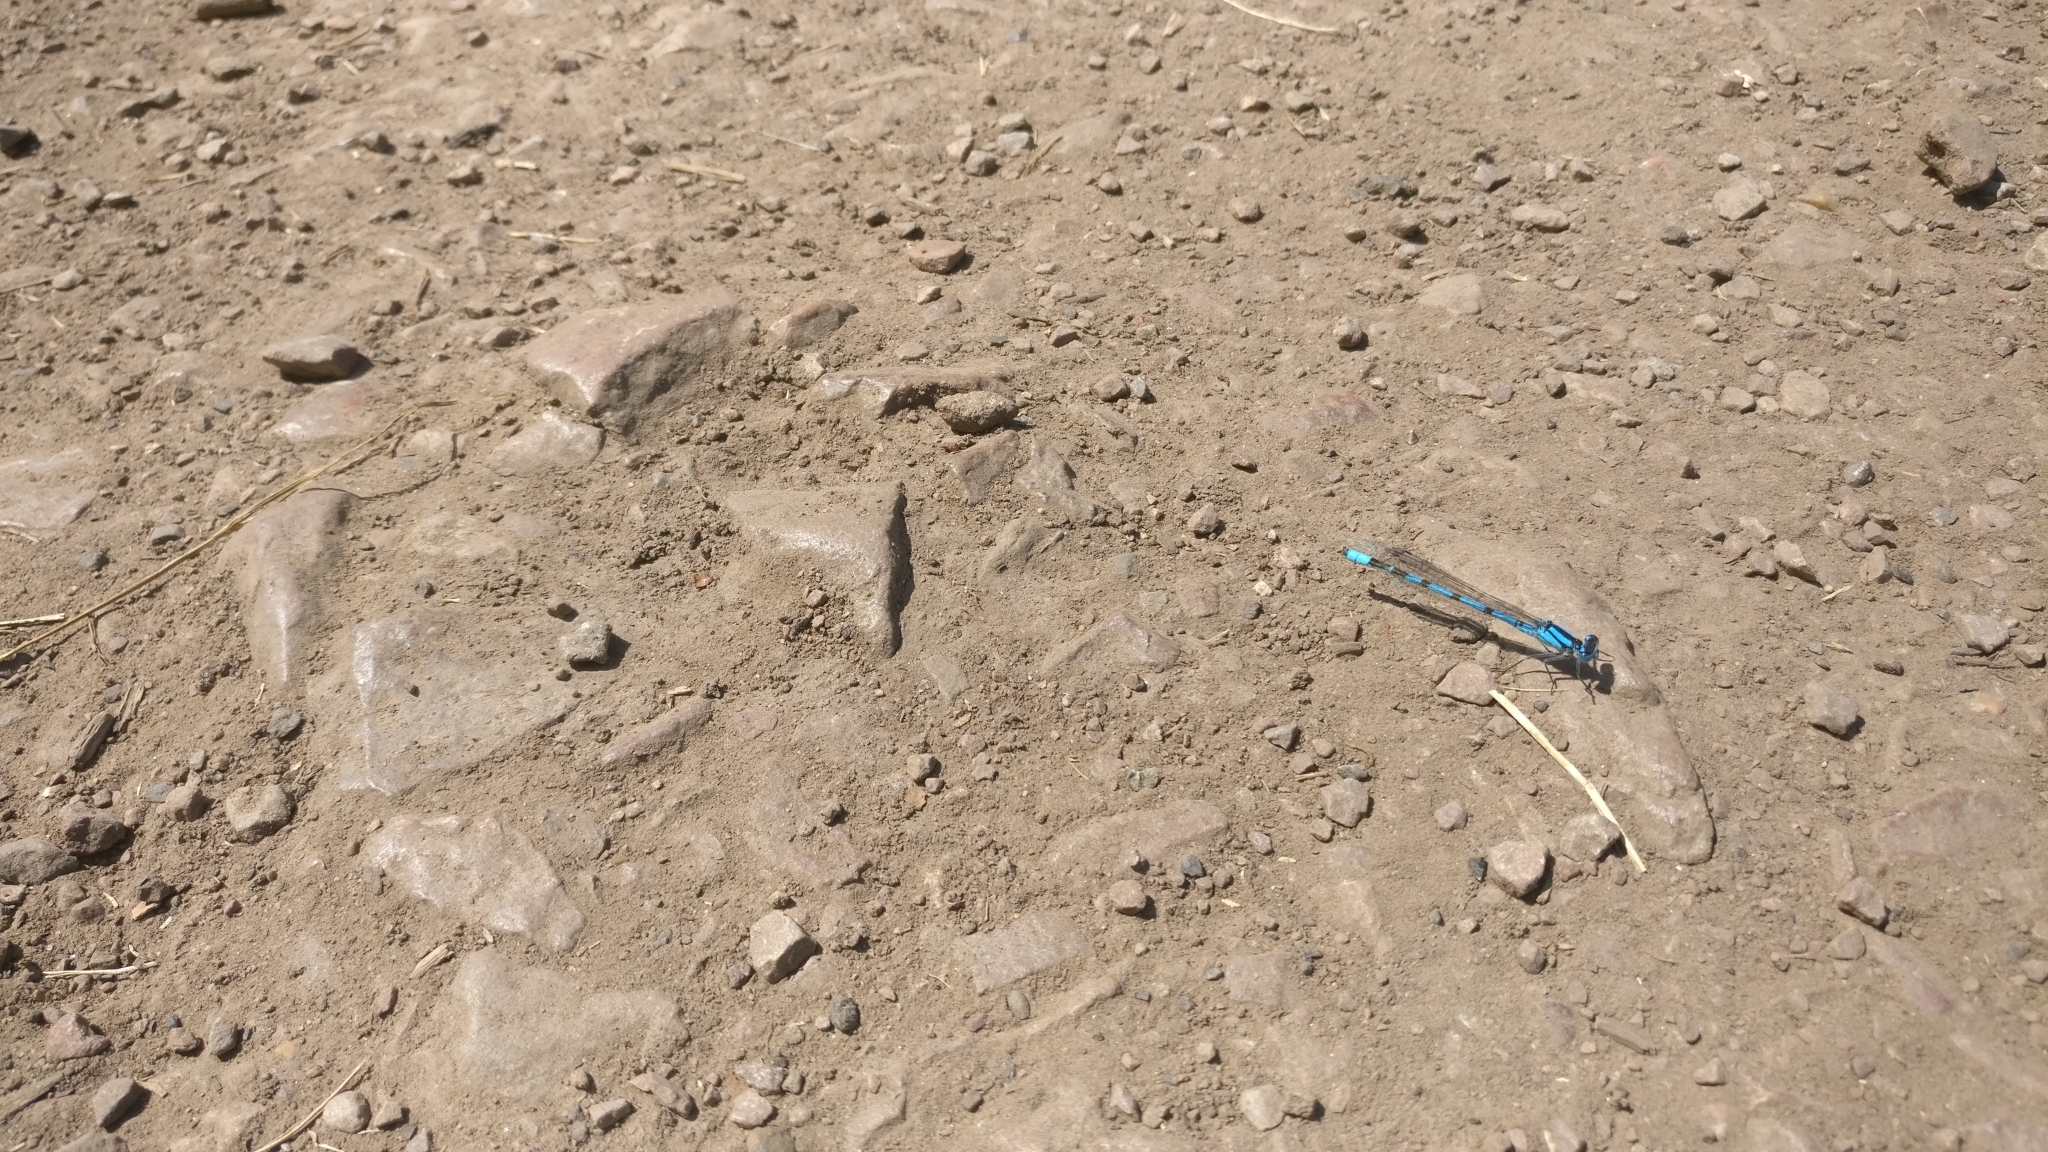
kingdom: Animalia
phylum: Arthropoda
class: Insecta
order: Odonata
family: Coenagrionidae
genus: Enallagma
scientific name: Enallagma cyathigerum
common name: Common blue damselfly
